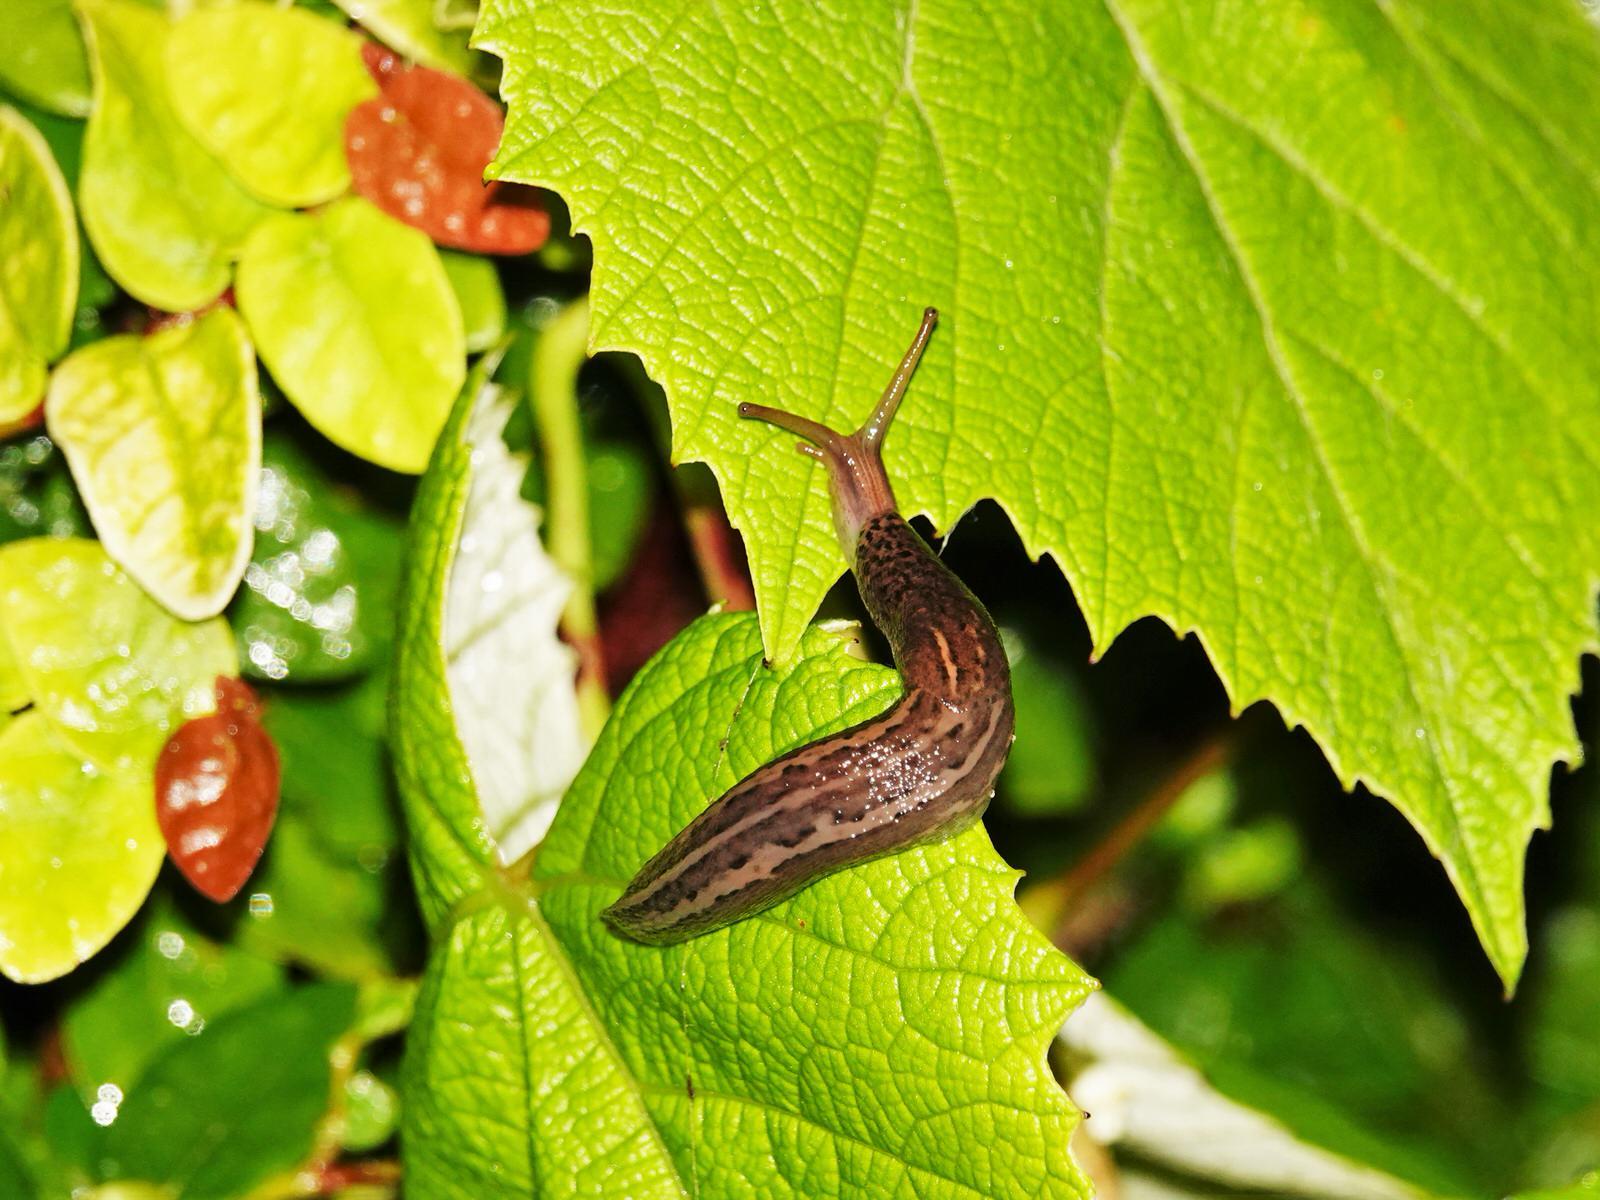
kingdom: Animalia
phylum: Mollusca
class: Gastropoda
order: Stylommatophora
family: Limacidae
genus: Limax
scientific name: Limax maximus
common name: Great grey slug
